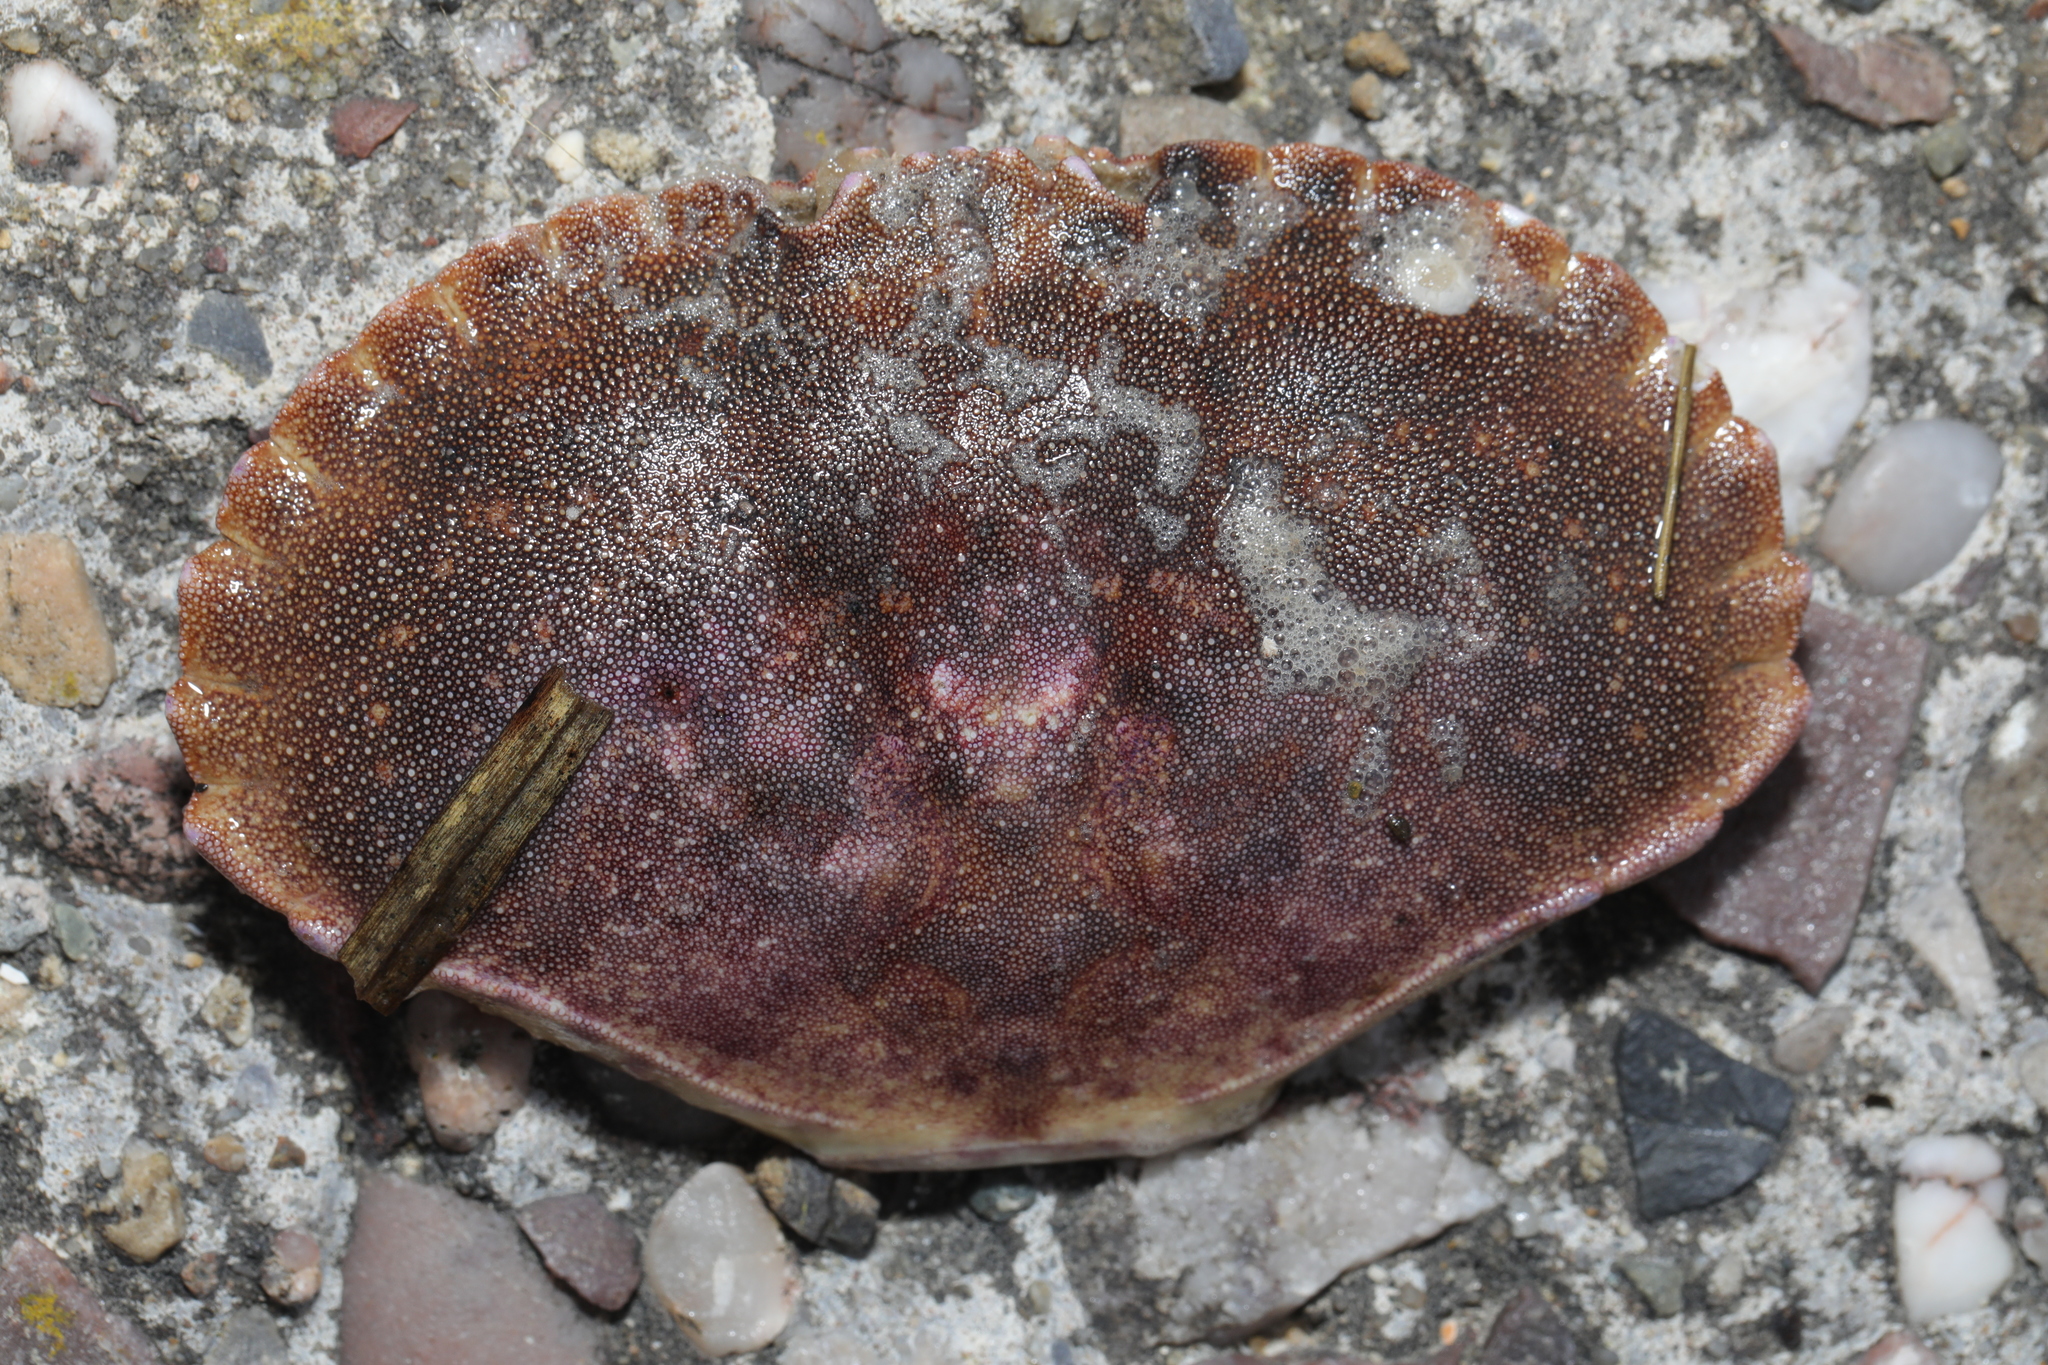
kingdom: Animalia
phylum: Arthropoda
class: Malacostraca
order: Decapoda
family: Cancridae
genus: Cancer
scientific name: Cancer pagurus
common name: Edible crab
